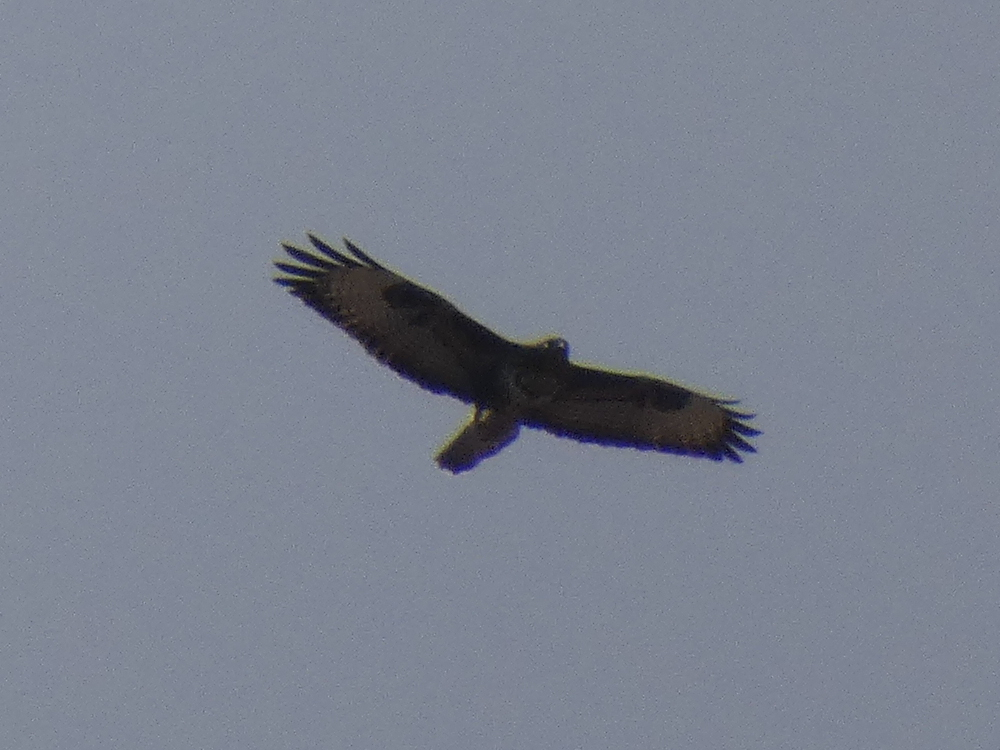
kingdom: Animalia
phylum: Chordata
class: Aves
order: Accipitriformes
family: Accipitridae
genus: Buteo
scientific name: Buteo buteo
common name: Common buzzard
